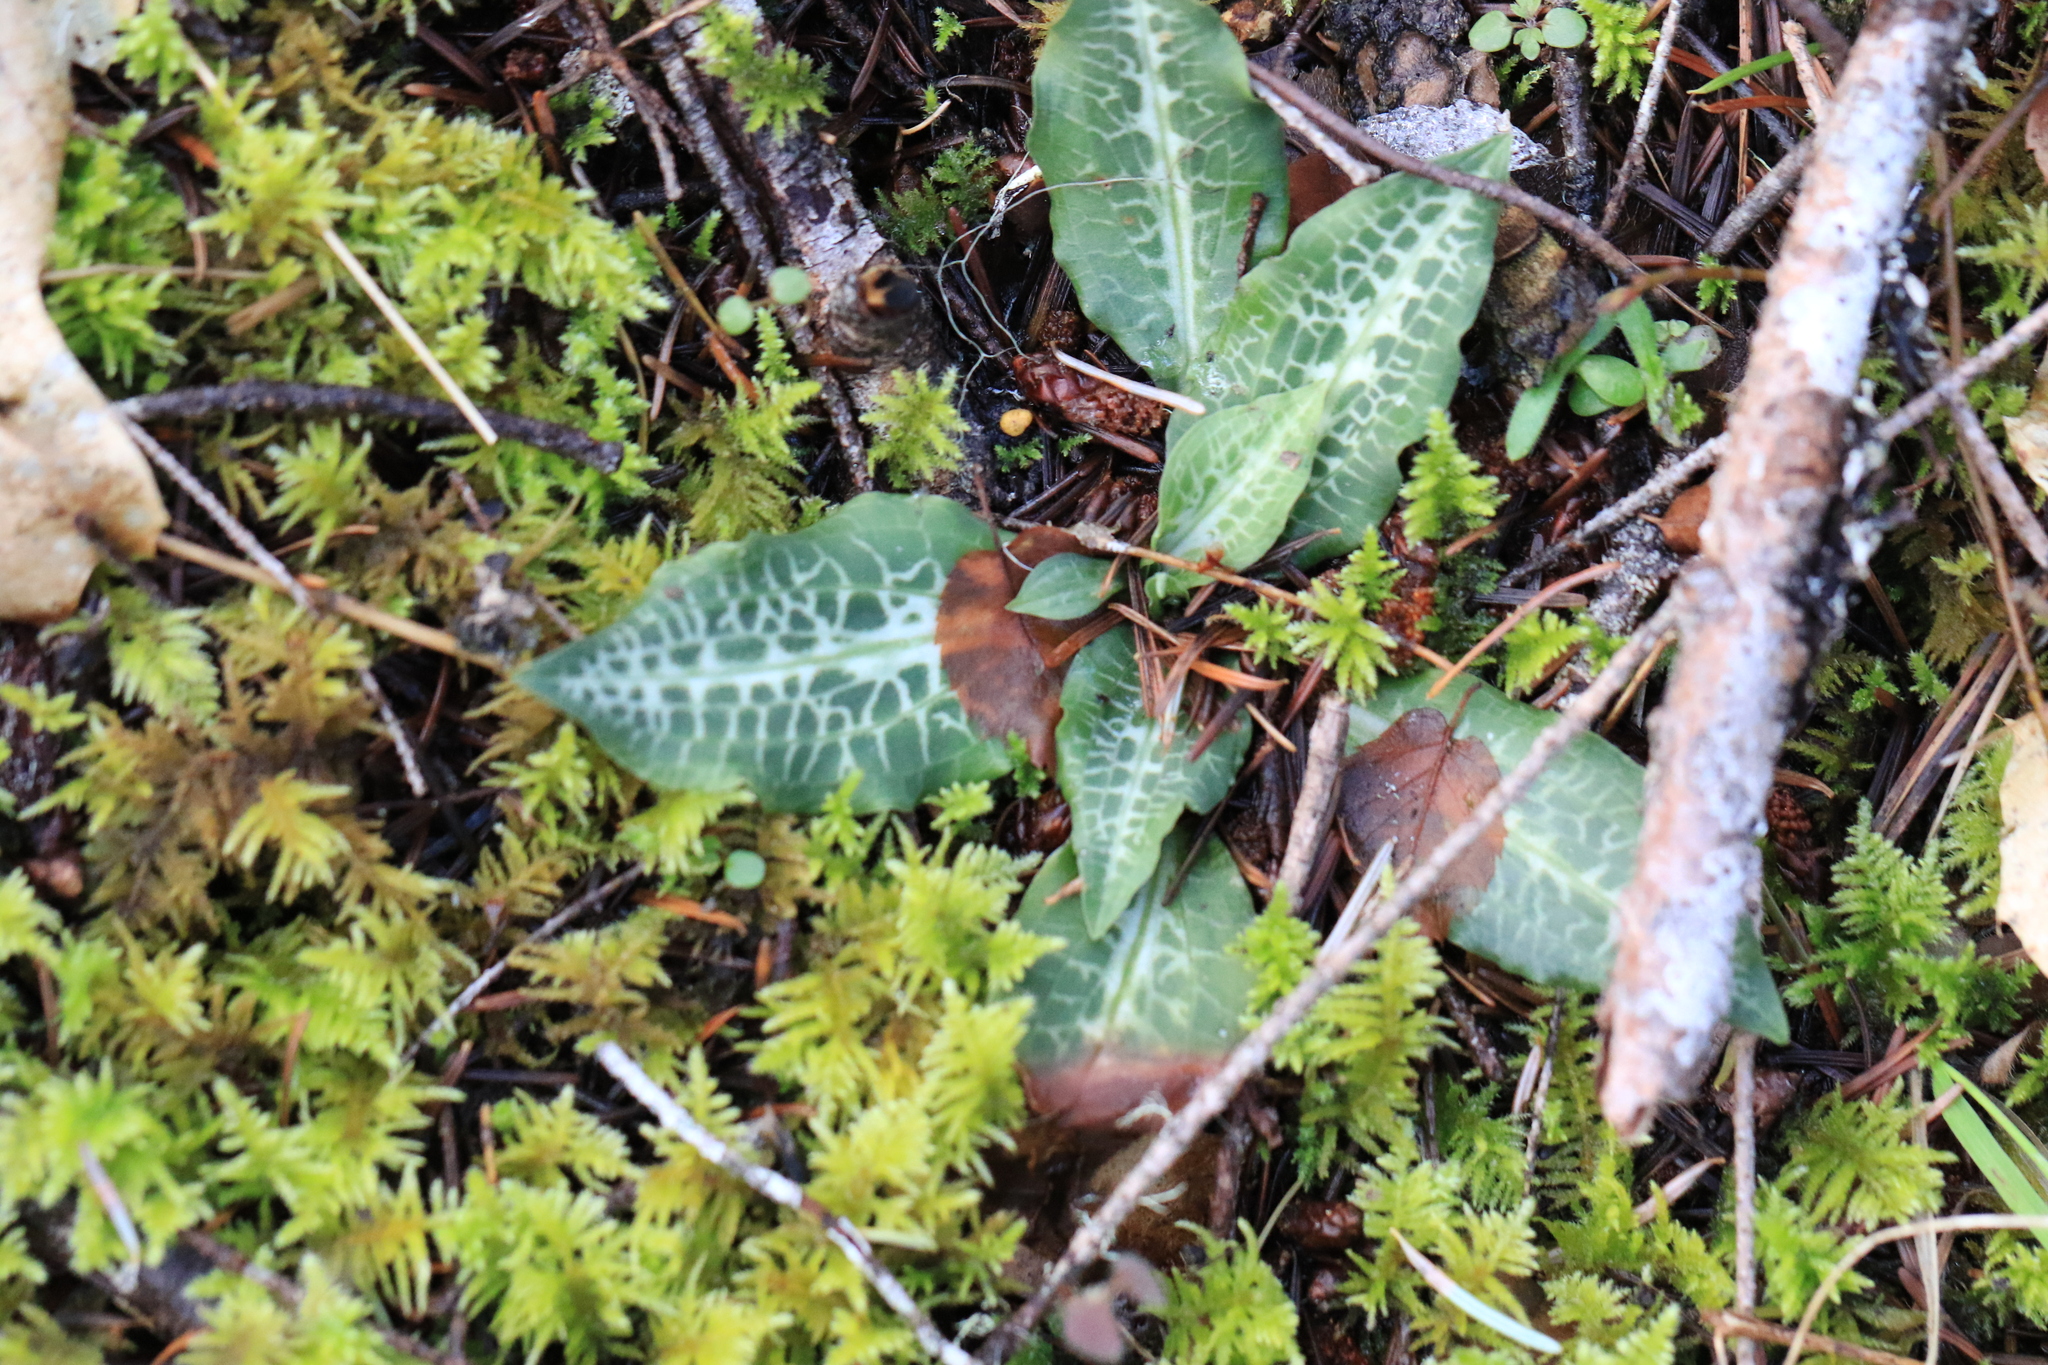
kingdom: Plantae
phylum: Tracheophyta
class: Liliopsida
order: Asparagales
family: Orchidaceae
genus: Goodyera
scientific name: Goodyera oblongifolia
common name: Giant rattlesnake-plantain
